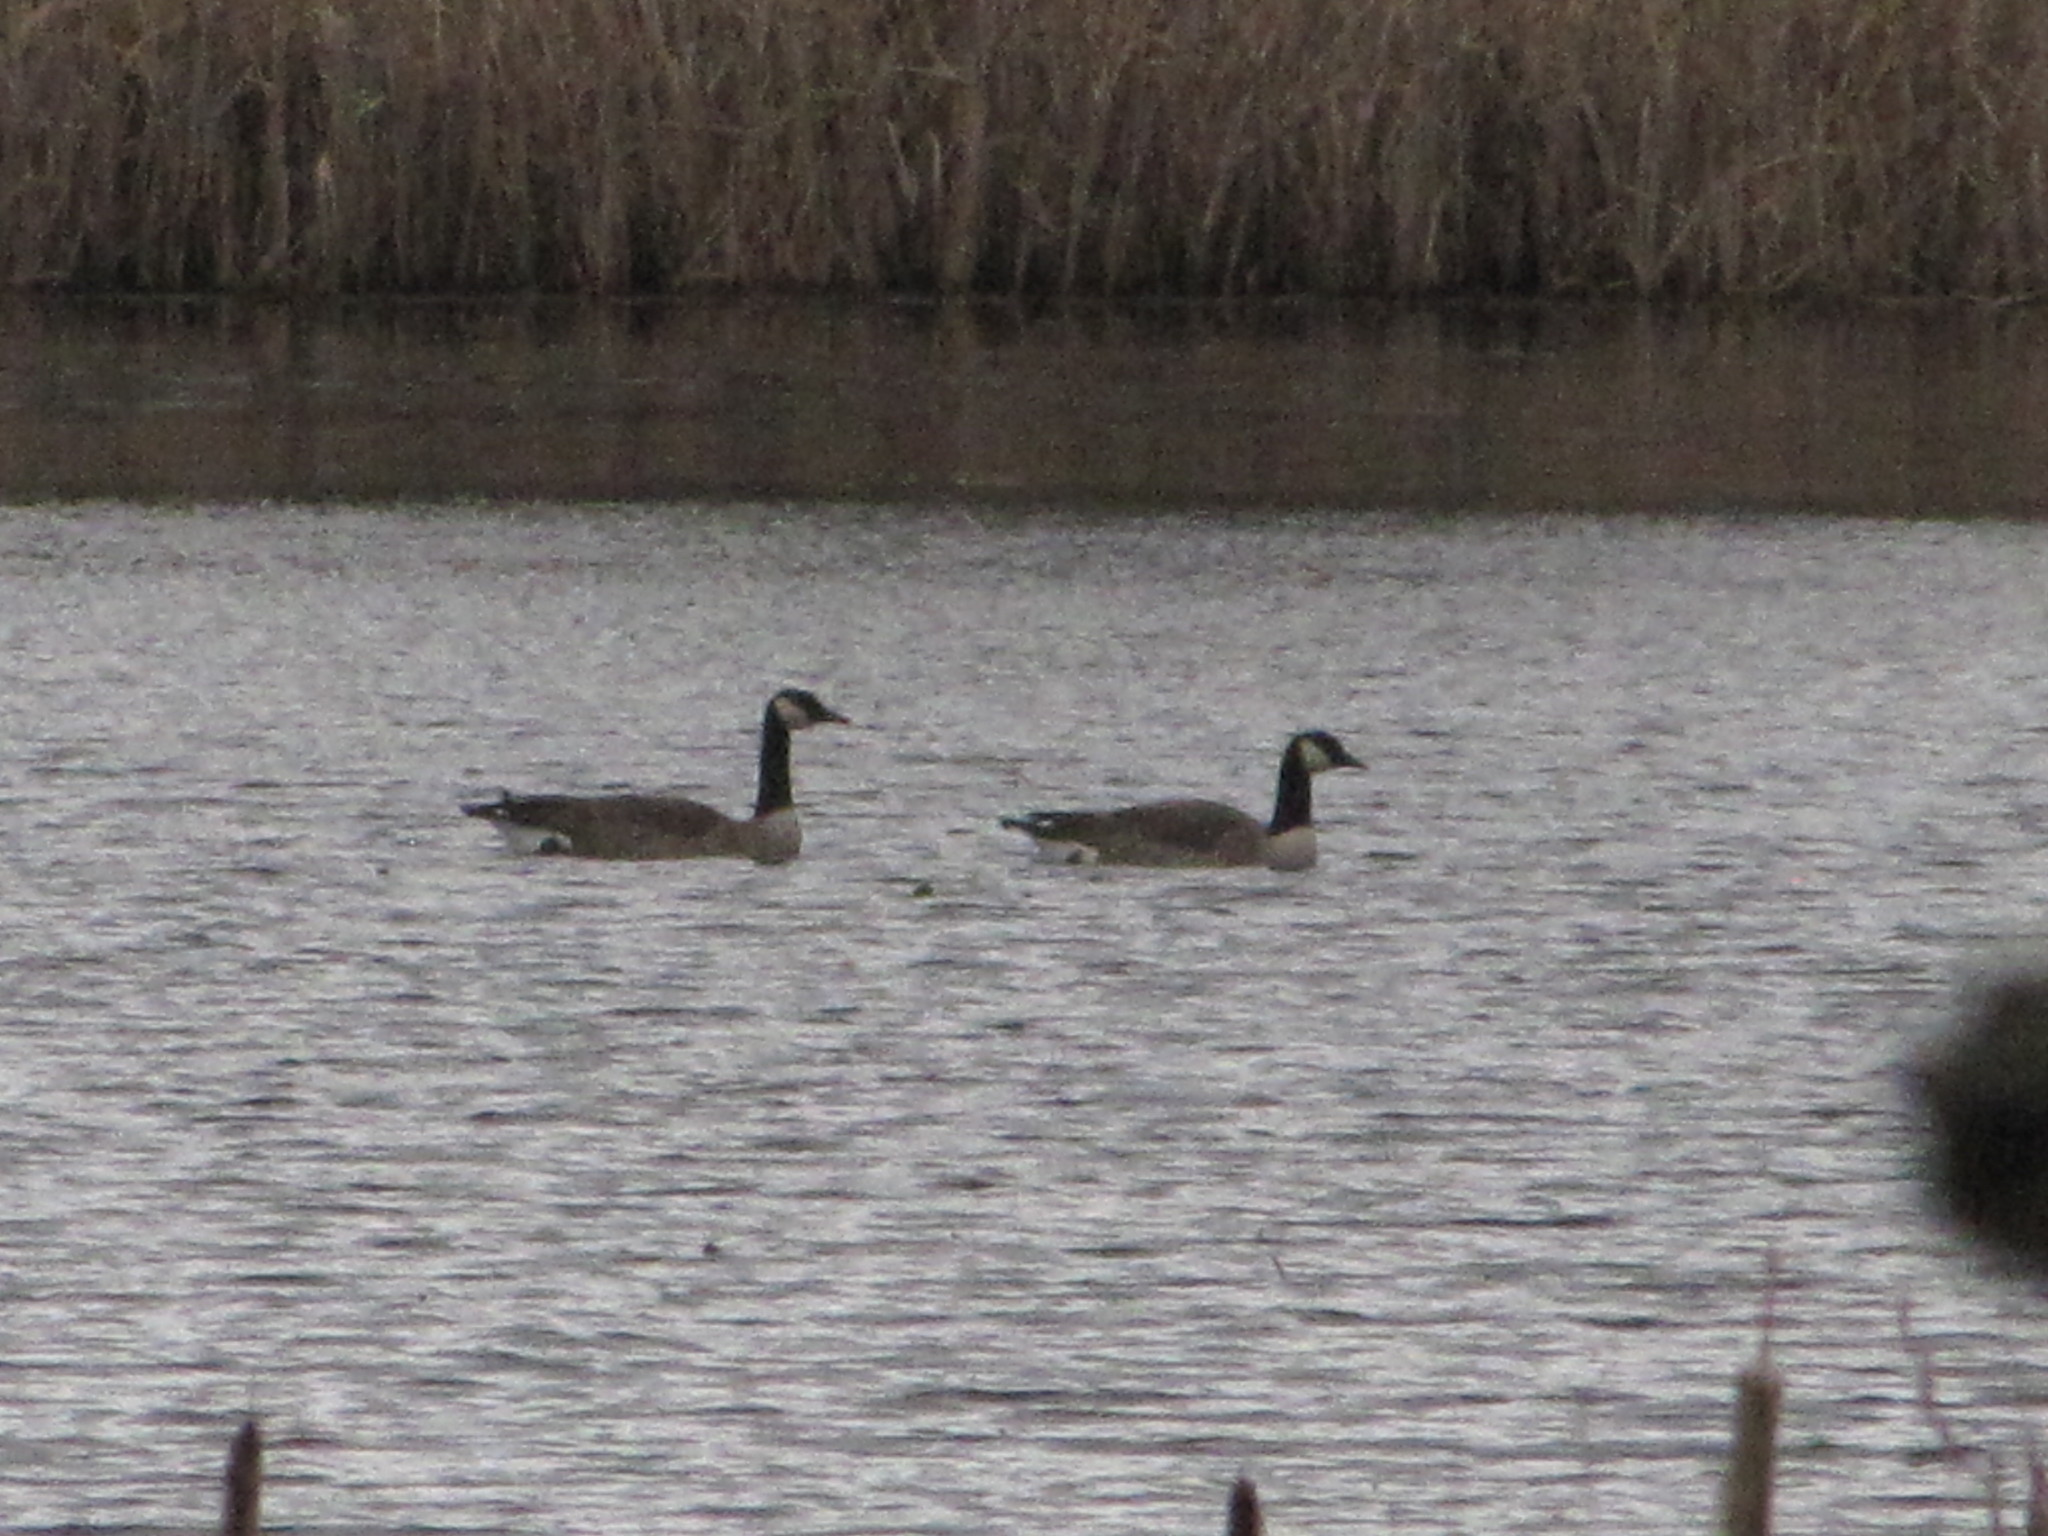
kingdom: Animalia
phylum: Chordata
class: Aves
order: Anseriformes
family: Anatidae
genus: Branta
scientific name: Branta canadensis
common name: Canada goose
